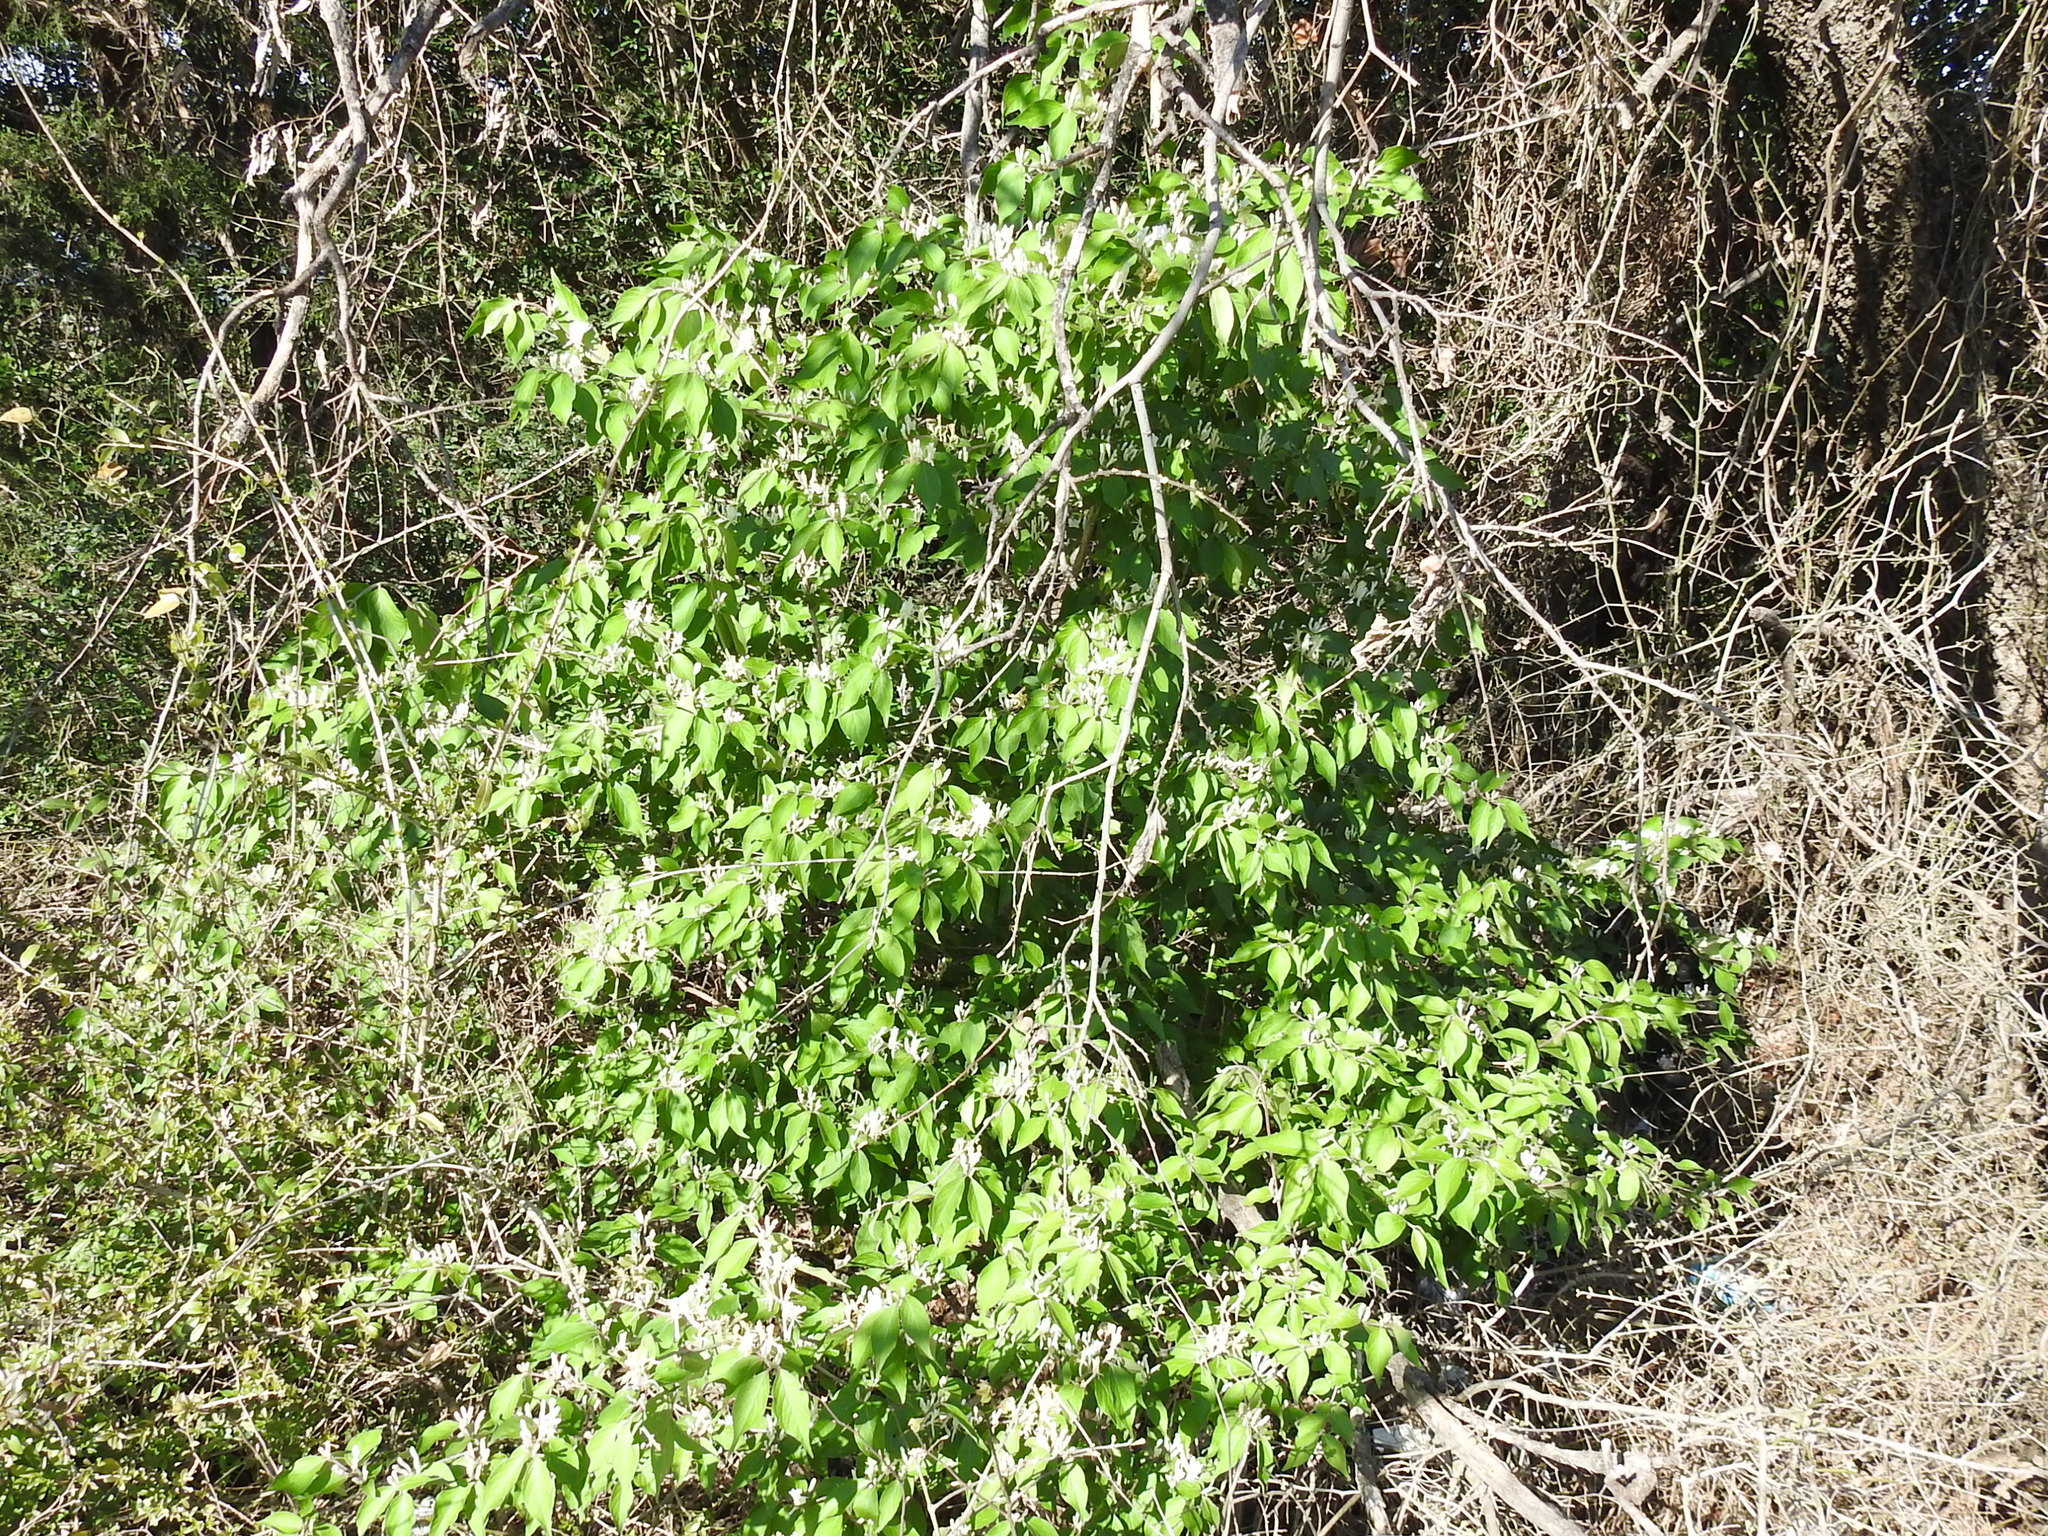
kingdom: Plantae
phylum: Tracheophyta
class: Magnoliopsida
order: Dipsacales
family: Caprifoliaceae
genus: Lonicera
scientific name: Lonicera maackii
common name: Amur honeysuckle
